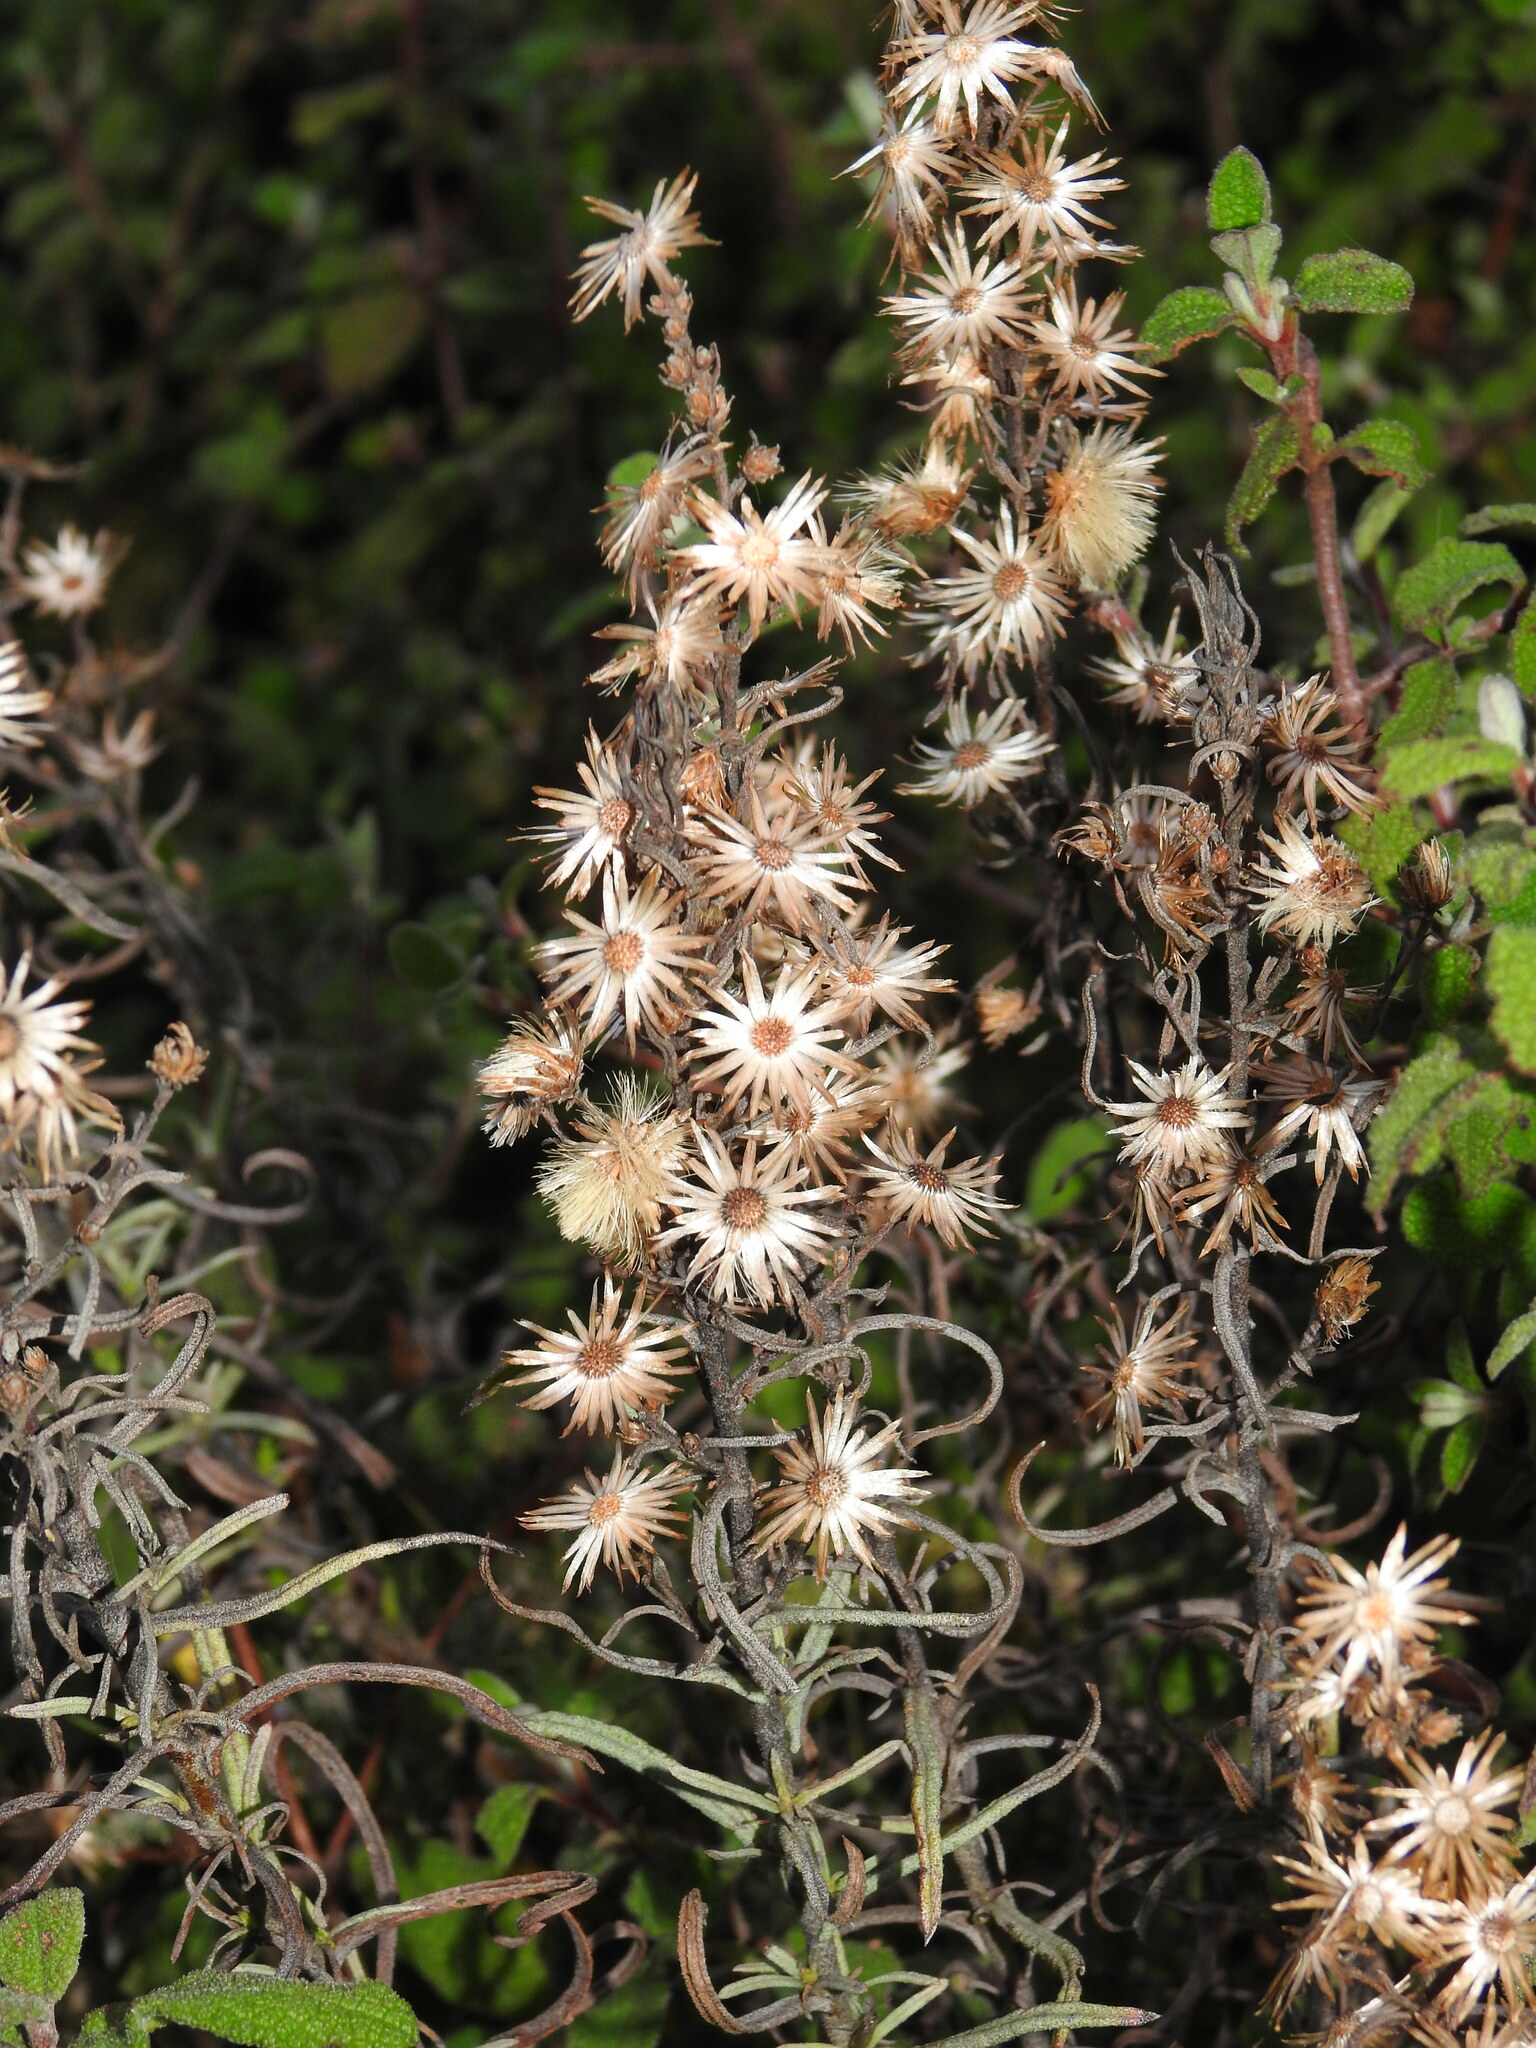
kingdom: Plantae
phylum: Tracheophyta
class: Magnoliopsida
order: Asterales
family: Asteraceae
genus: Dittrichia
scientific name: Dittrichia viscosa
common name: Woody fleabane
